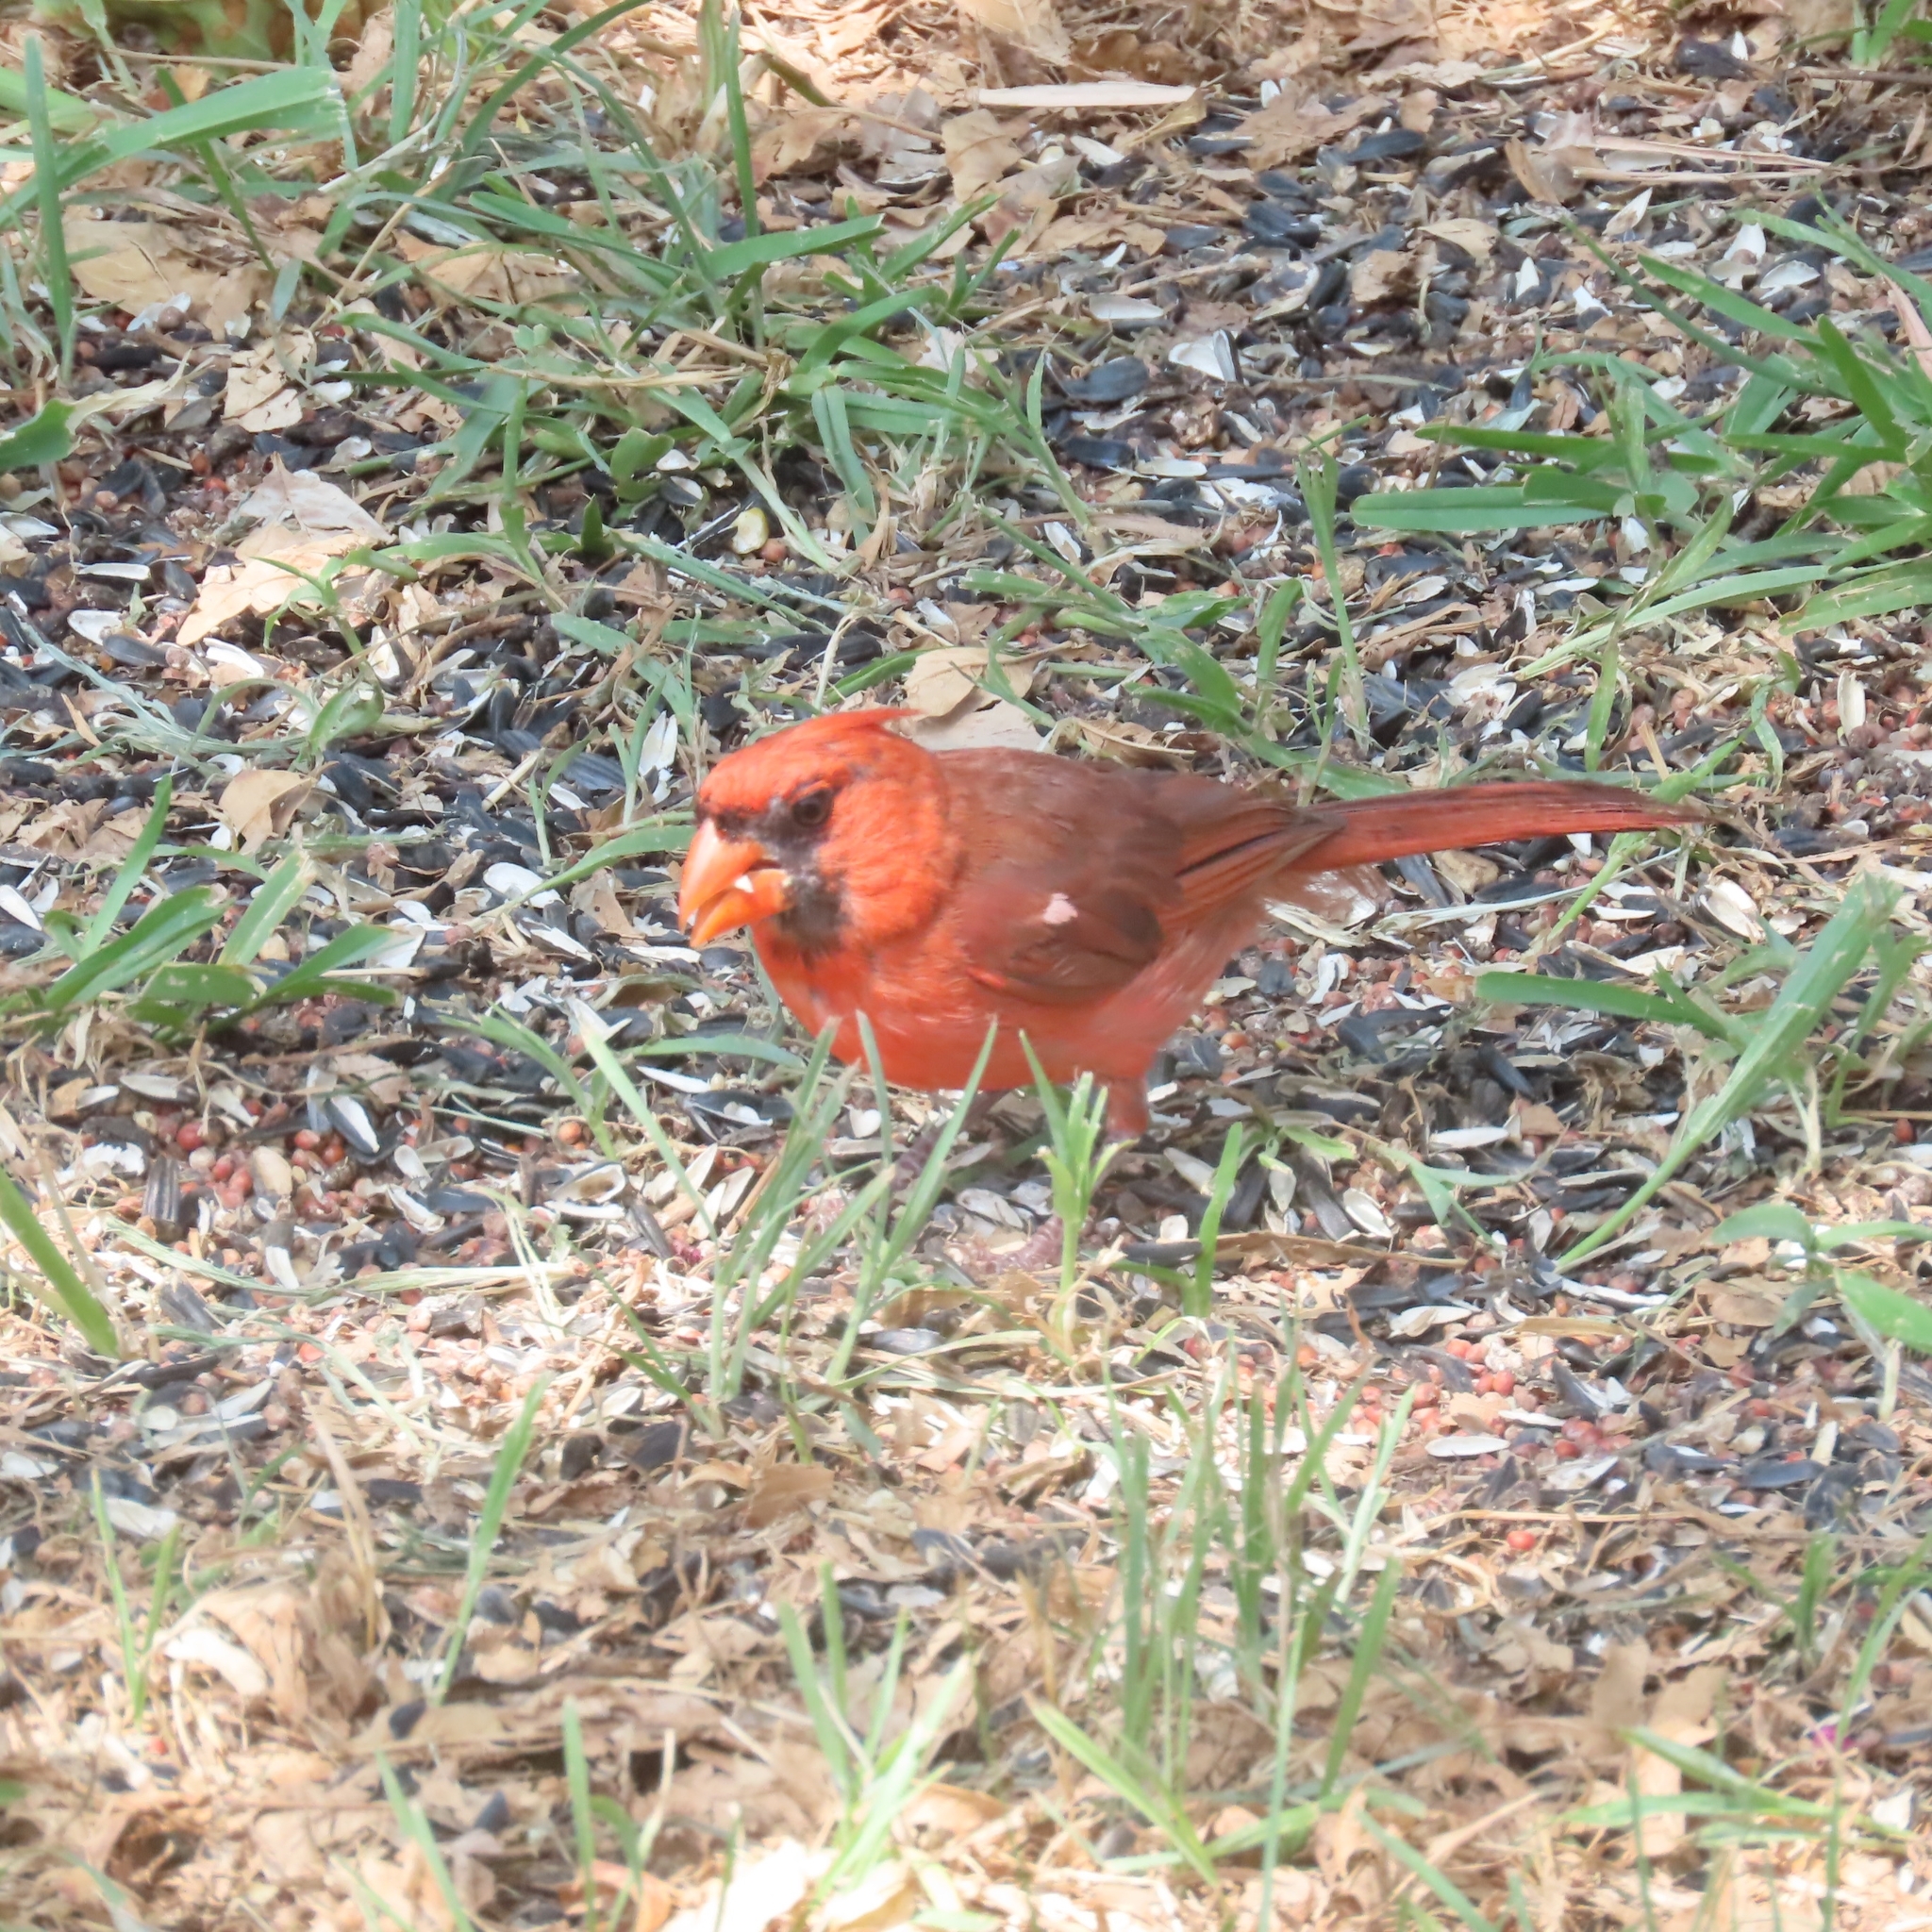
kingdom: Animalia
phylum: Chordata
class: Aves
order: Passeriformes
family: Cardinalidae
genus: Cardinalis
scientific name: Cardinalis cardinalis
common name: Northern cardinal
